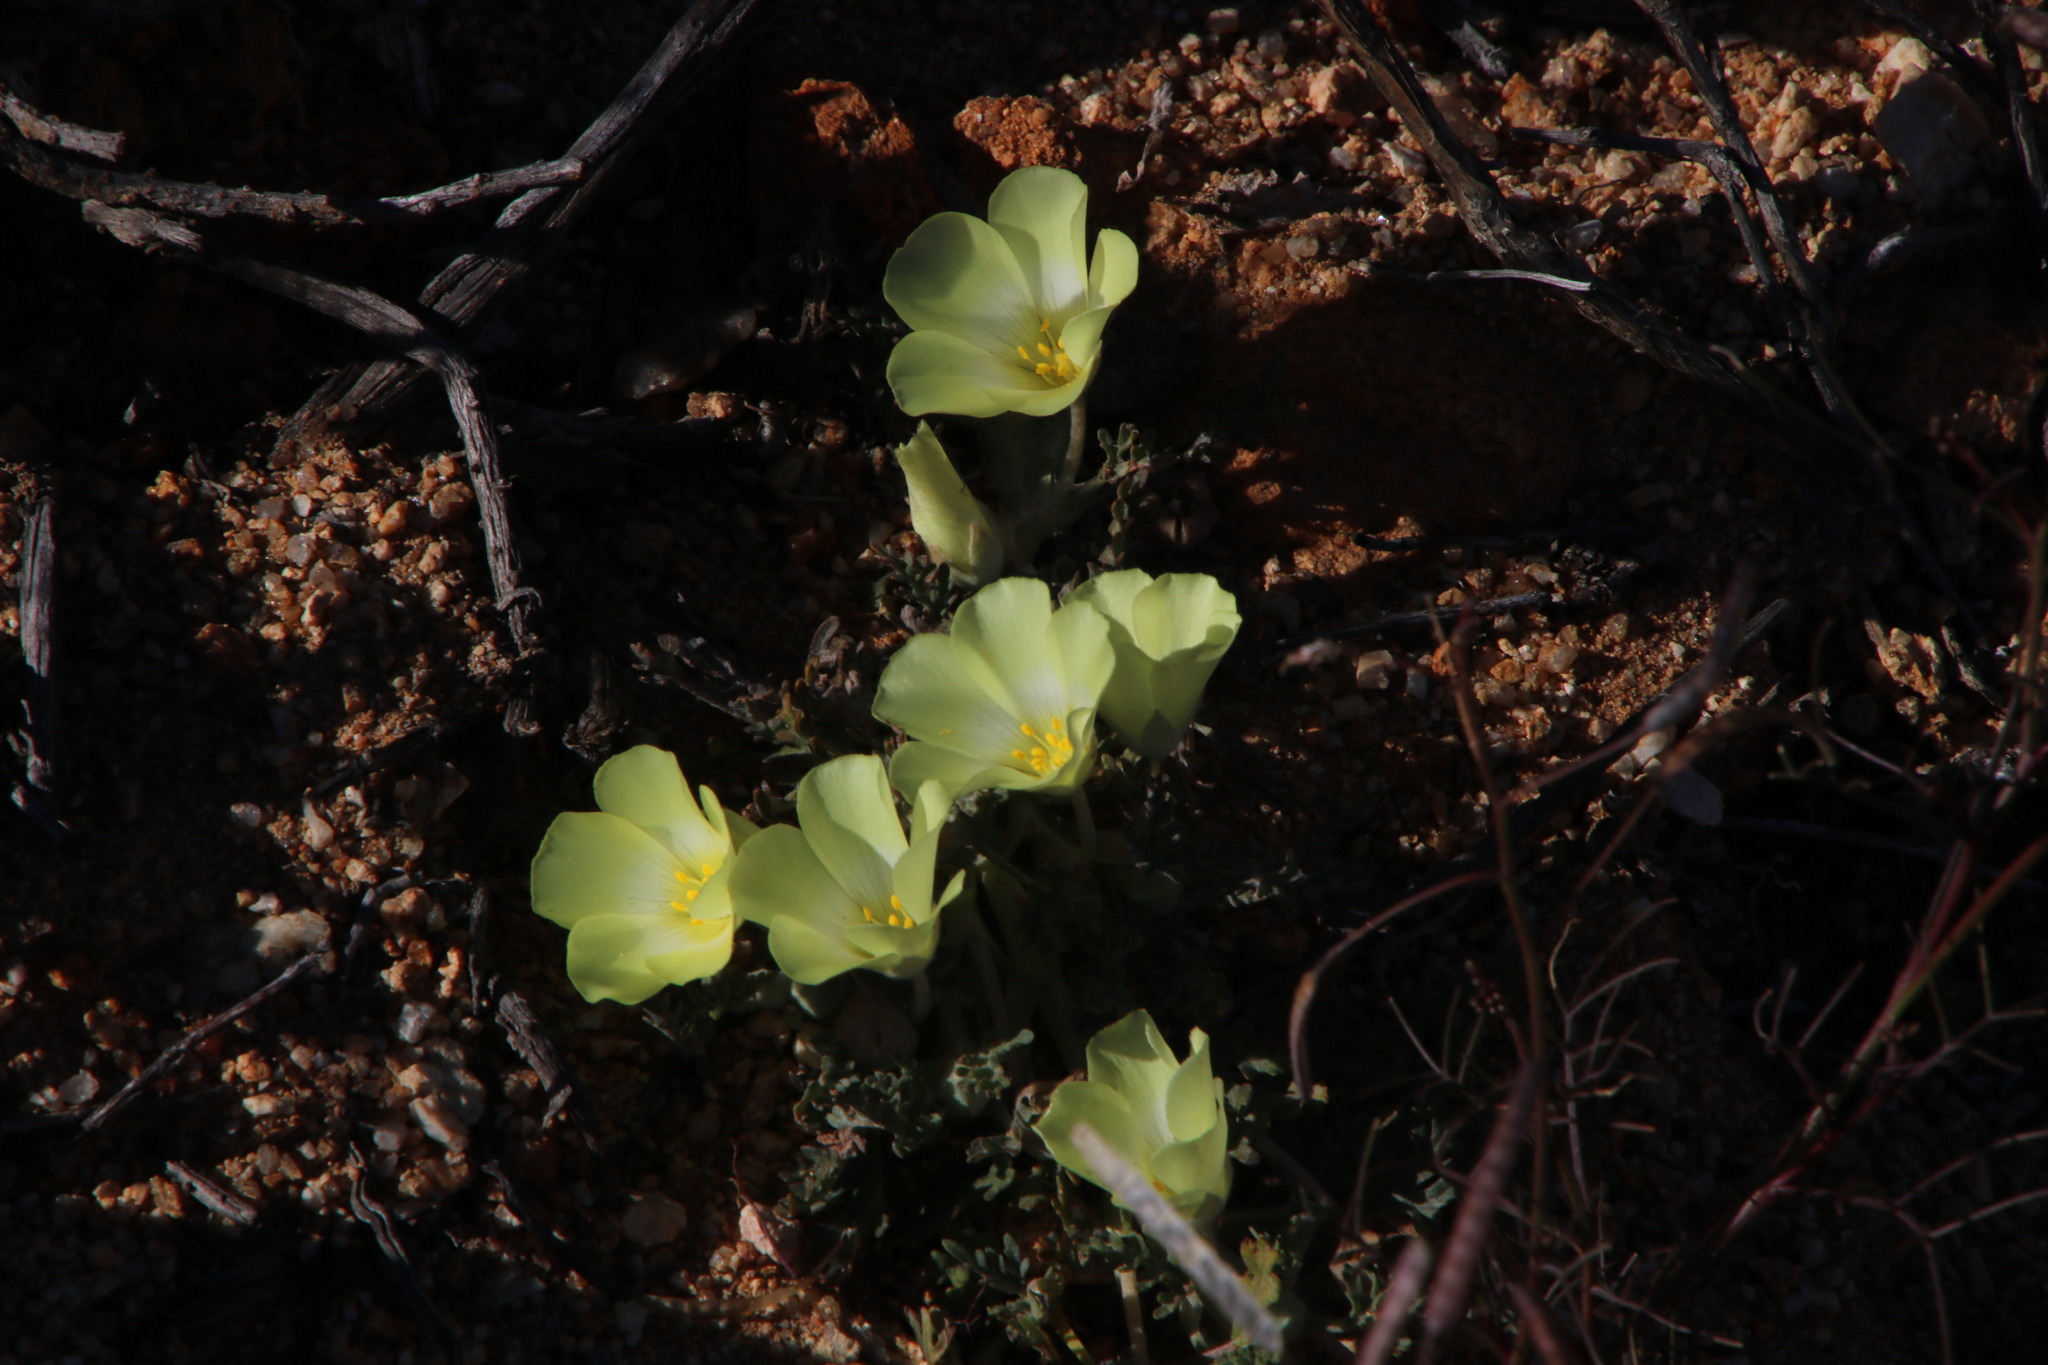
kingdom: Plantae
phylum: Tracheophyta
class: Magnoliopsida
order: Malvales
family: Neuradaceae
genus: Grielum
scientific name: Grielum humifusum
